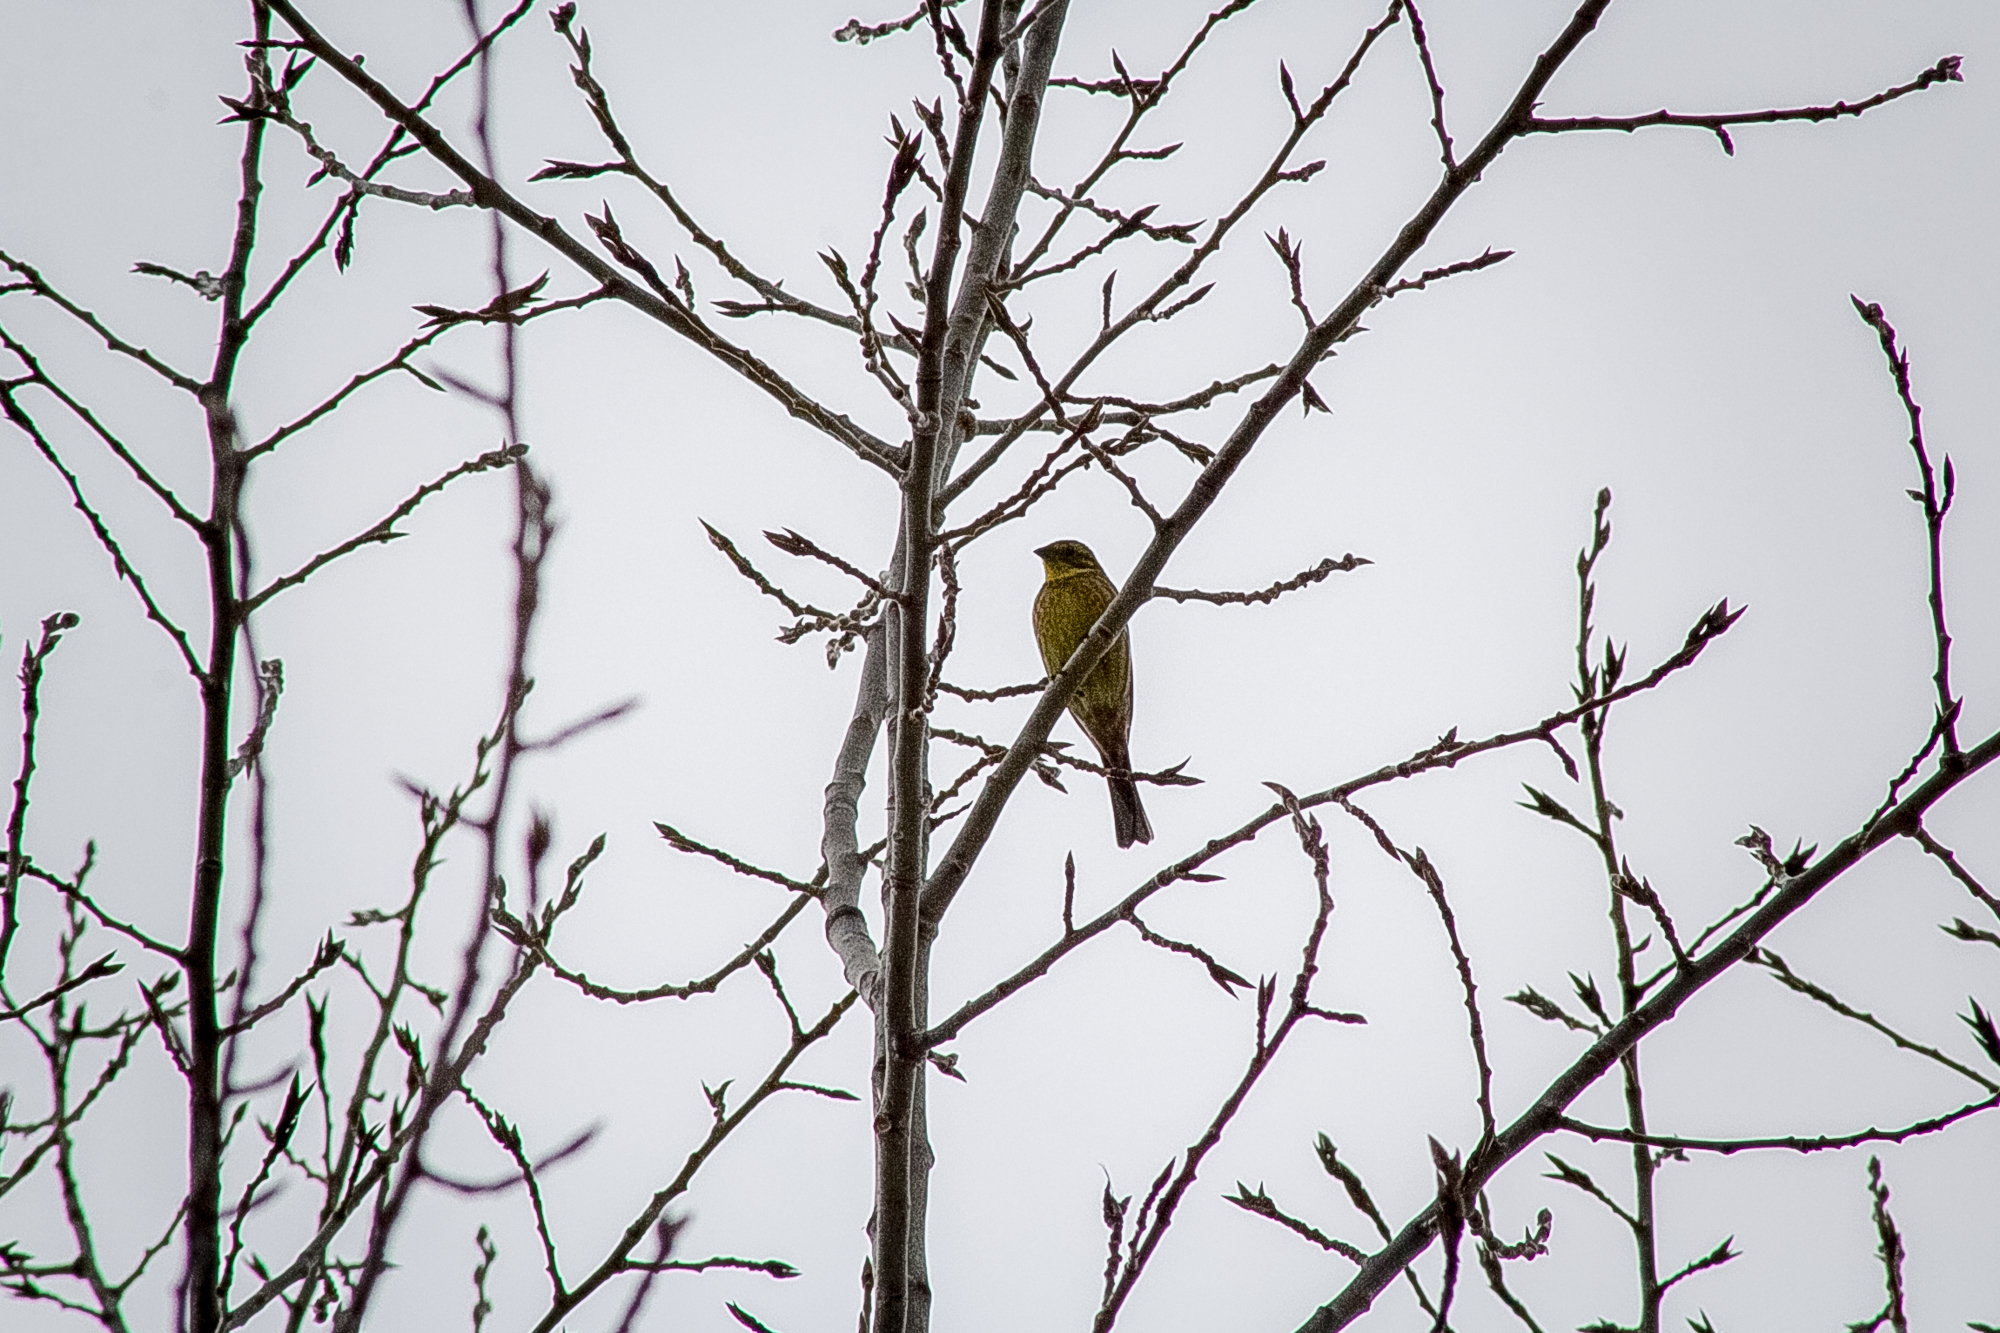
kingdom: Animalia
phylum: Chordata
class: Aves
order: Passeriformes
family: Emberizidae
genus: Emberiza
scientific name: Emberiza citrinella
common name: Yellowhammer
